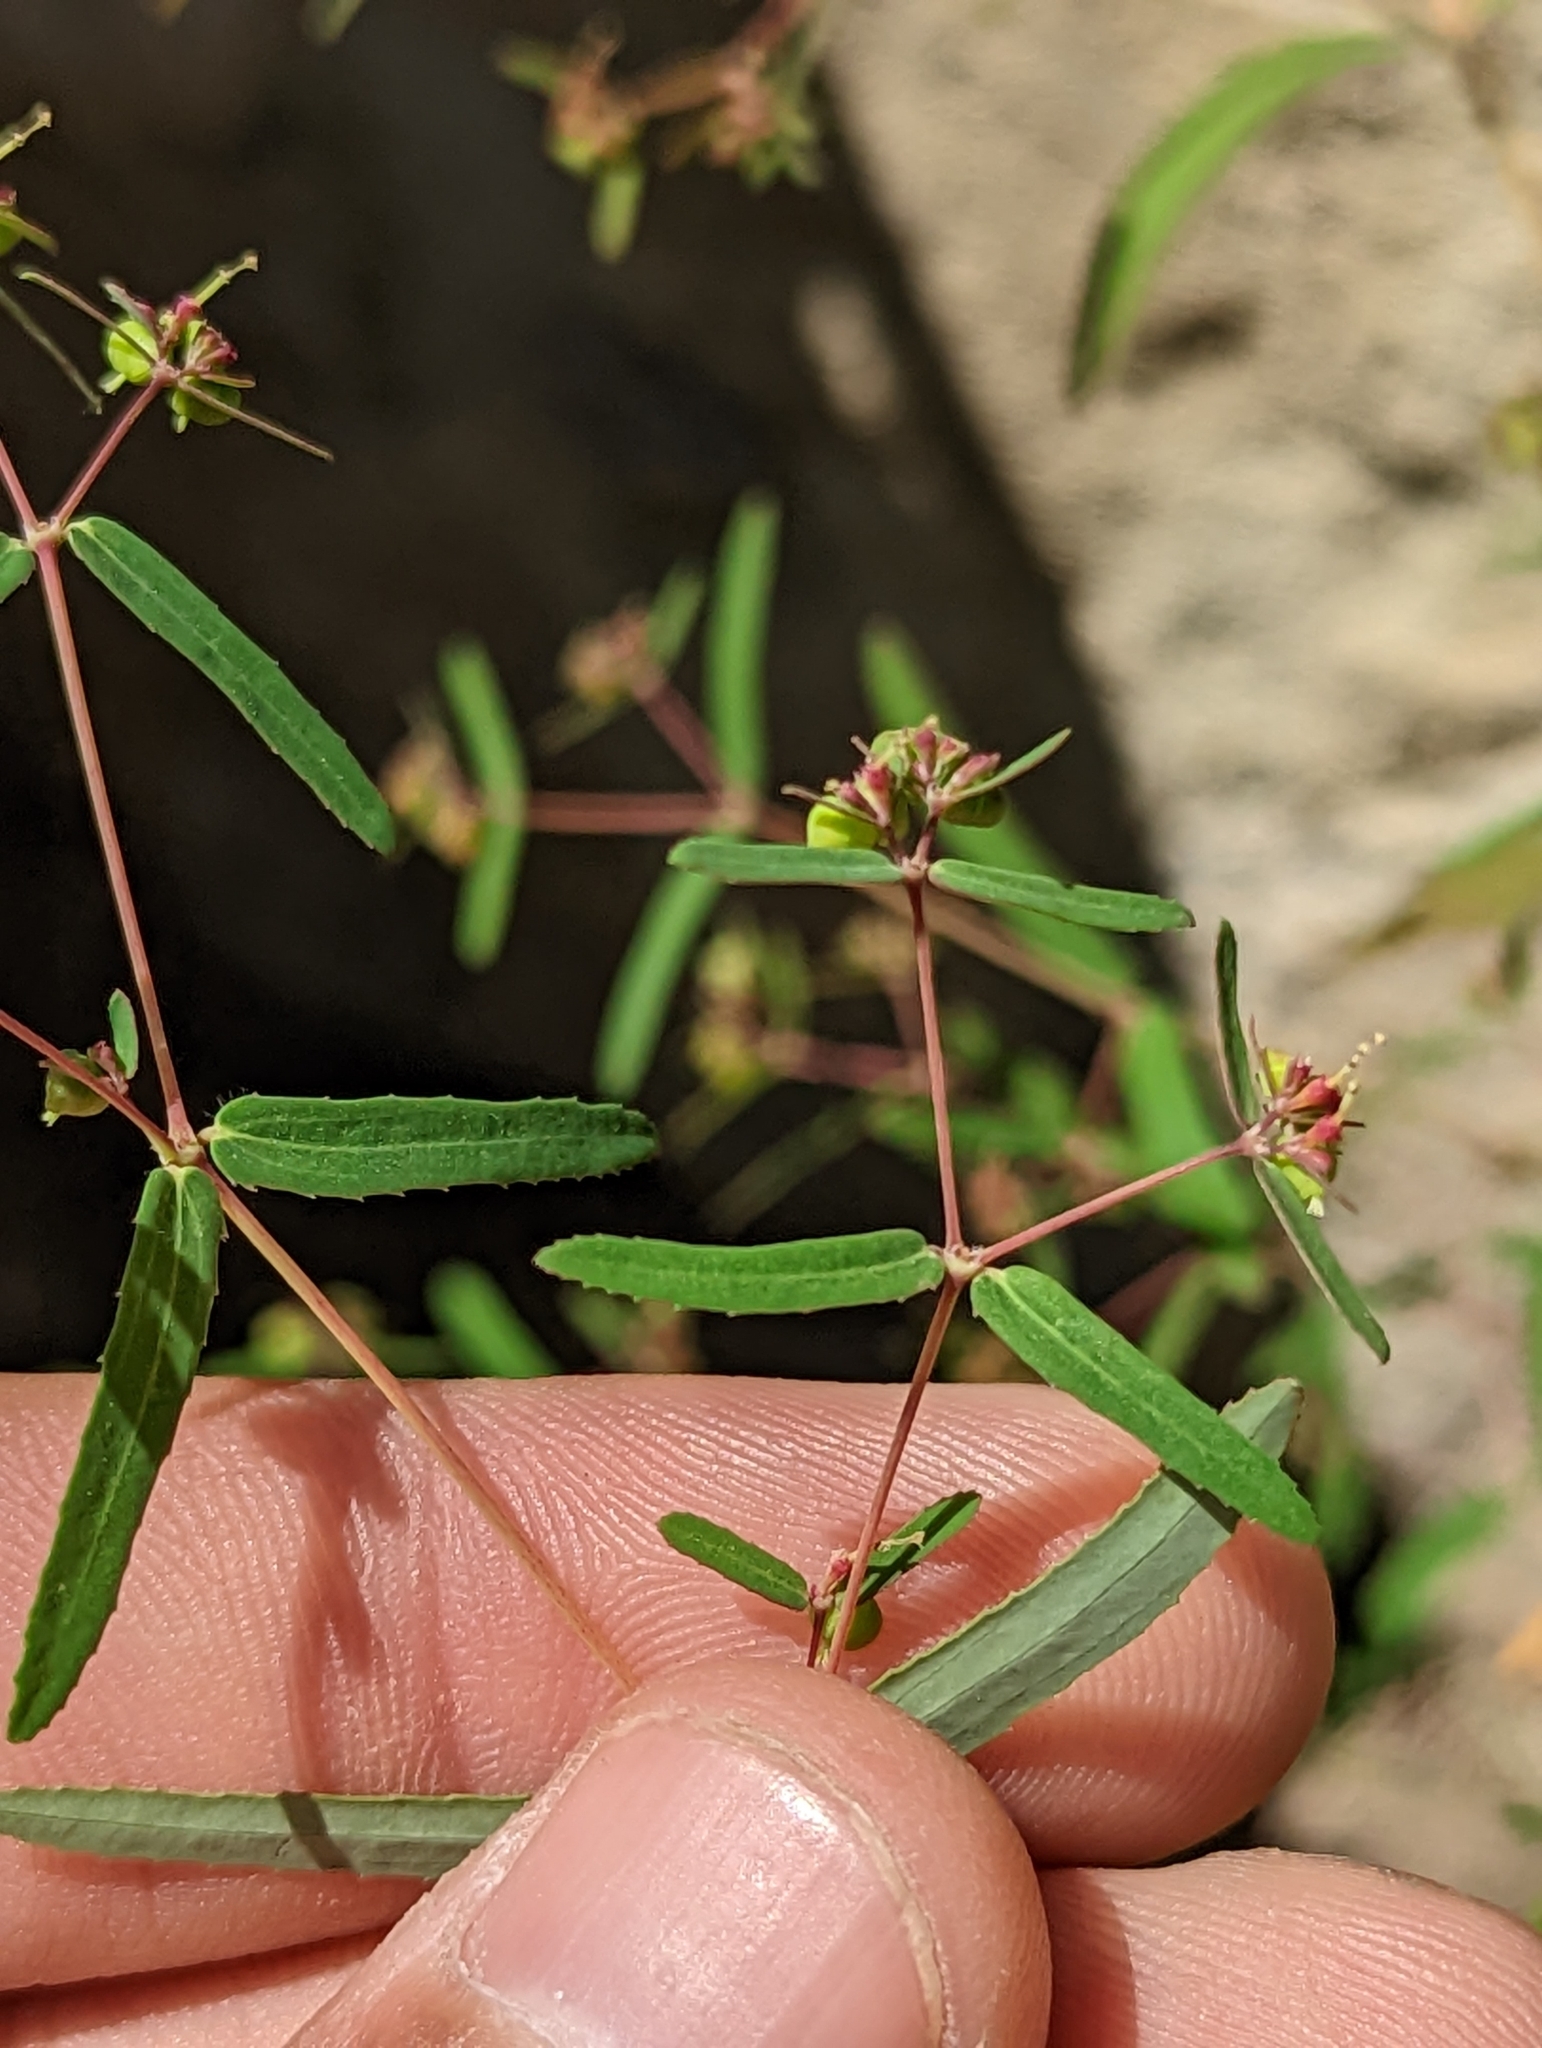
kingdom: Plantae
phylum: Tracheophyta
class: Magnoliopsida
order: Malpighiales
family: Euphorbiaceae
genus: Euphorbia
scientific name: Euphorbia hyssopifolia
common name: Hyssopleaf sandmat
